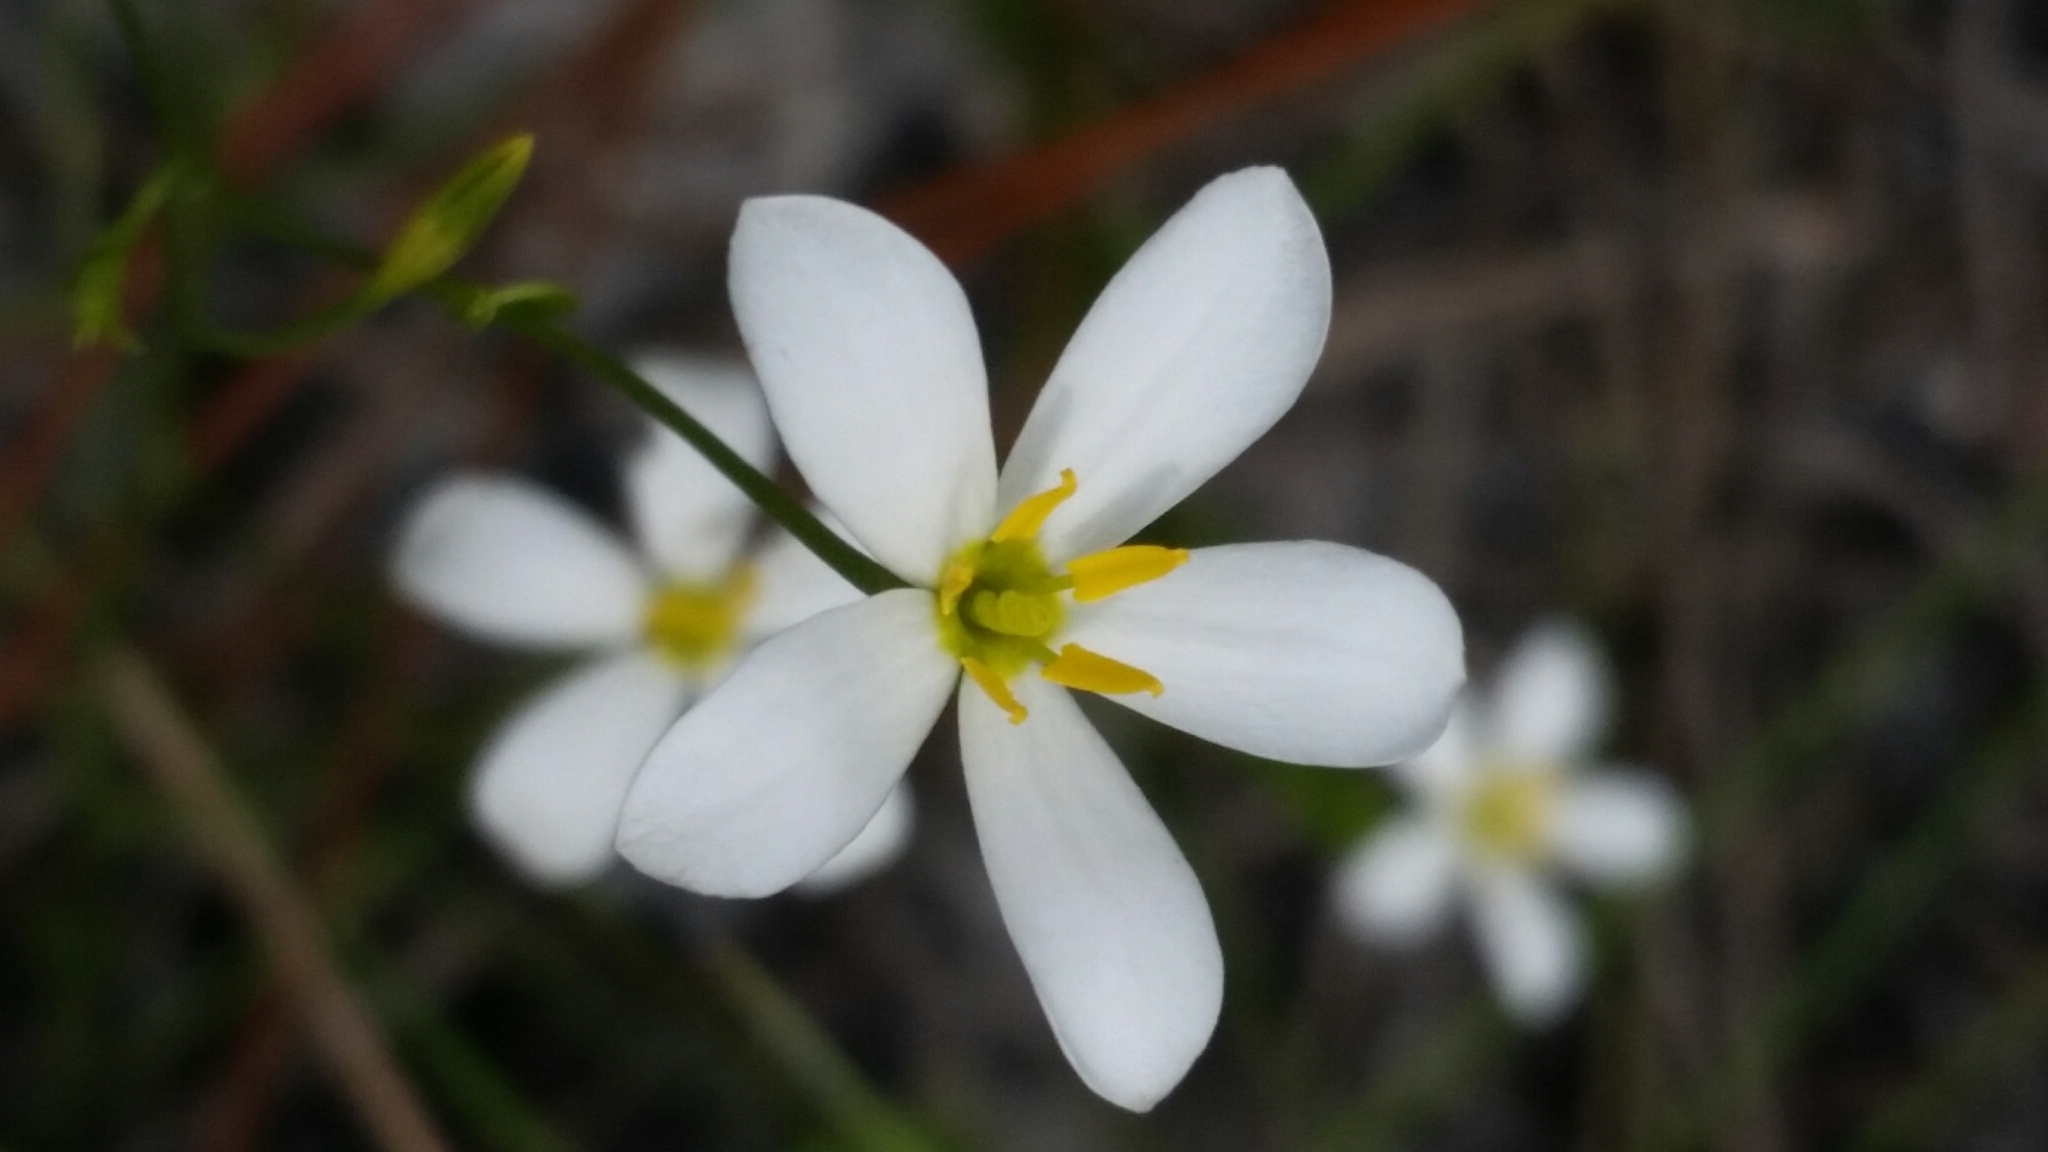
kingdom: Plantae
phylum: Tracheophyta
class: Magnoliopsida
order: Gentianales
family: Gentianaceae
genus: Sabatia
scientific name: Sabatia brevifolia
